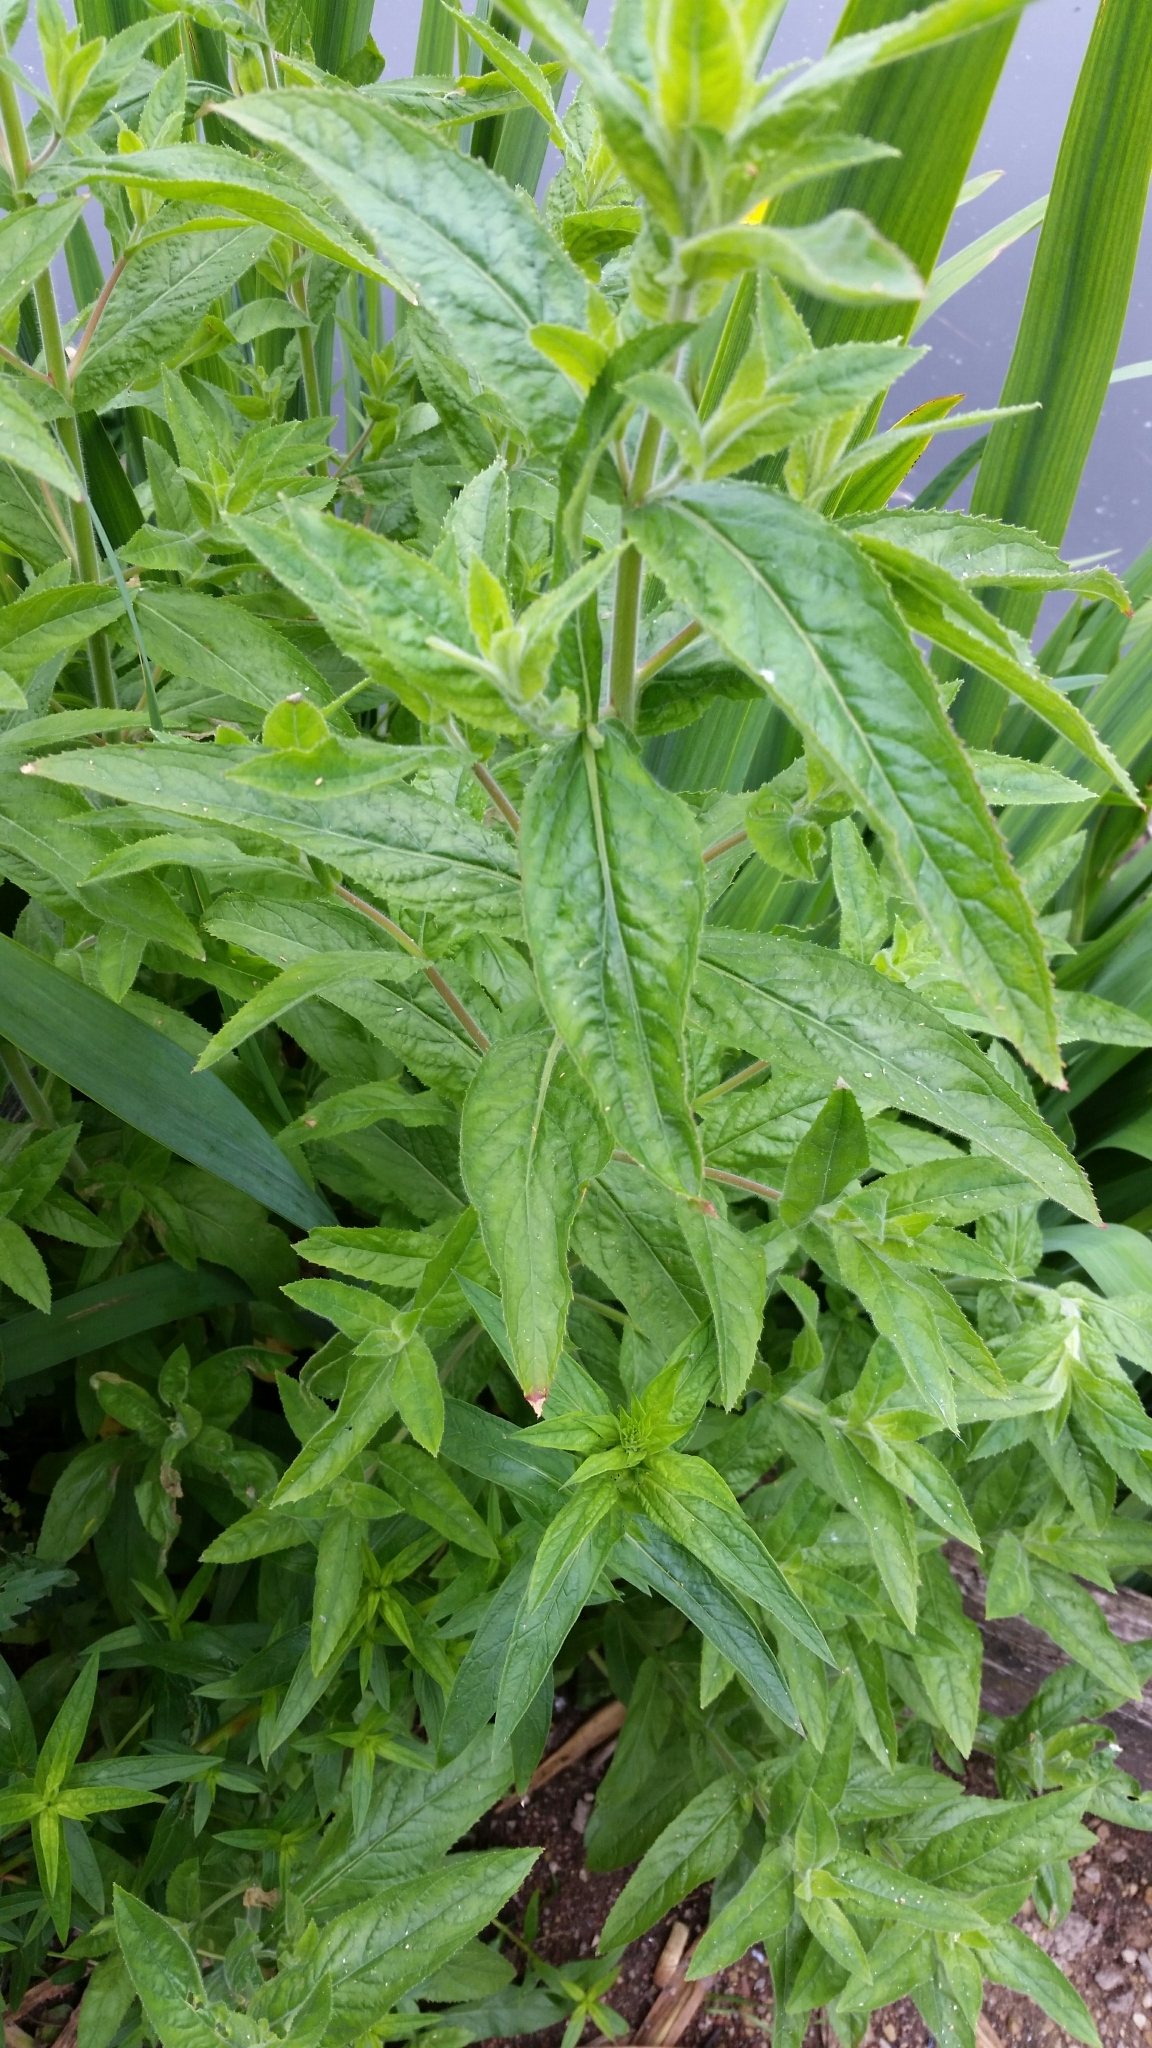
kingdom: Plantae
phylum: Tracheophyta
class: Magnoliopsida
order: Myrtales
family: Onagraceae
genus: Epilobium
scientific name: Epilobium hirsutum
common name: Great willowherb
